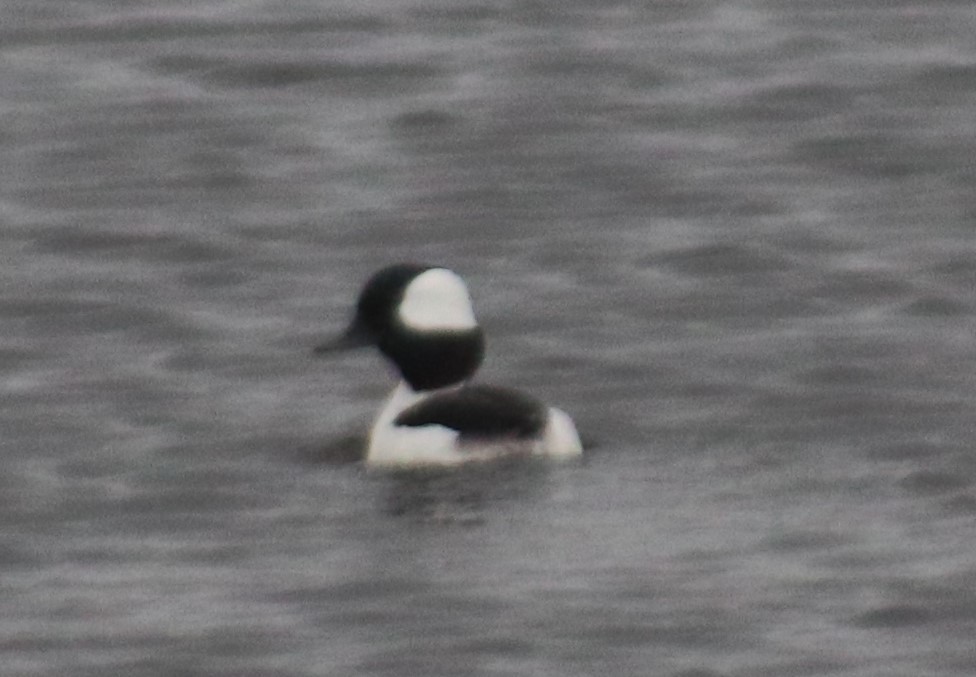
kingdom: Animalia
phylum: Chordata
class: Aves
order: Anseriformes
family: Anatidae
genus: Bucephala
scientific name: Bucephala albeola
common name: Bufflehead
